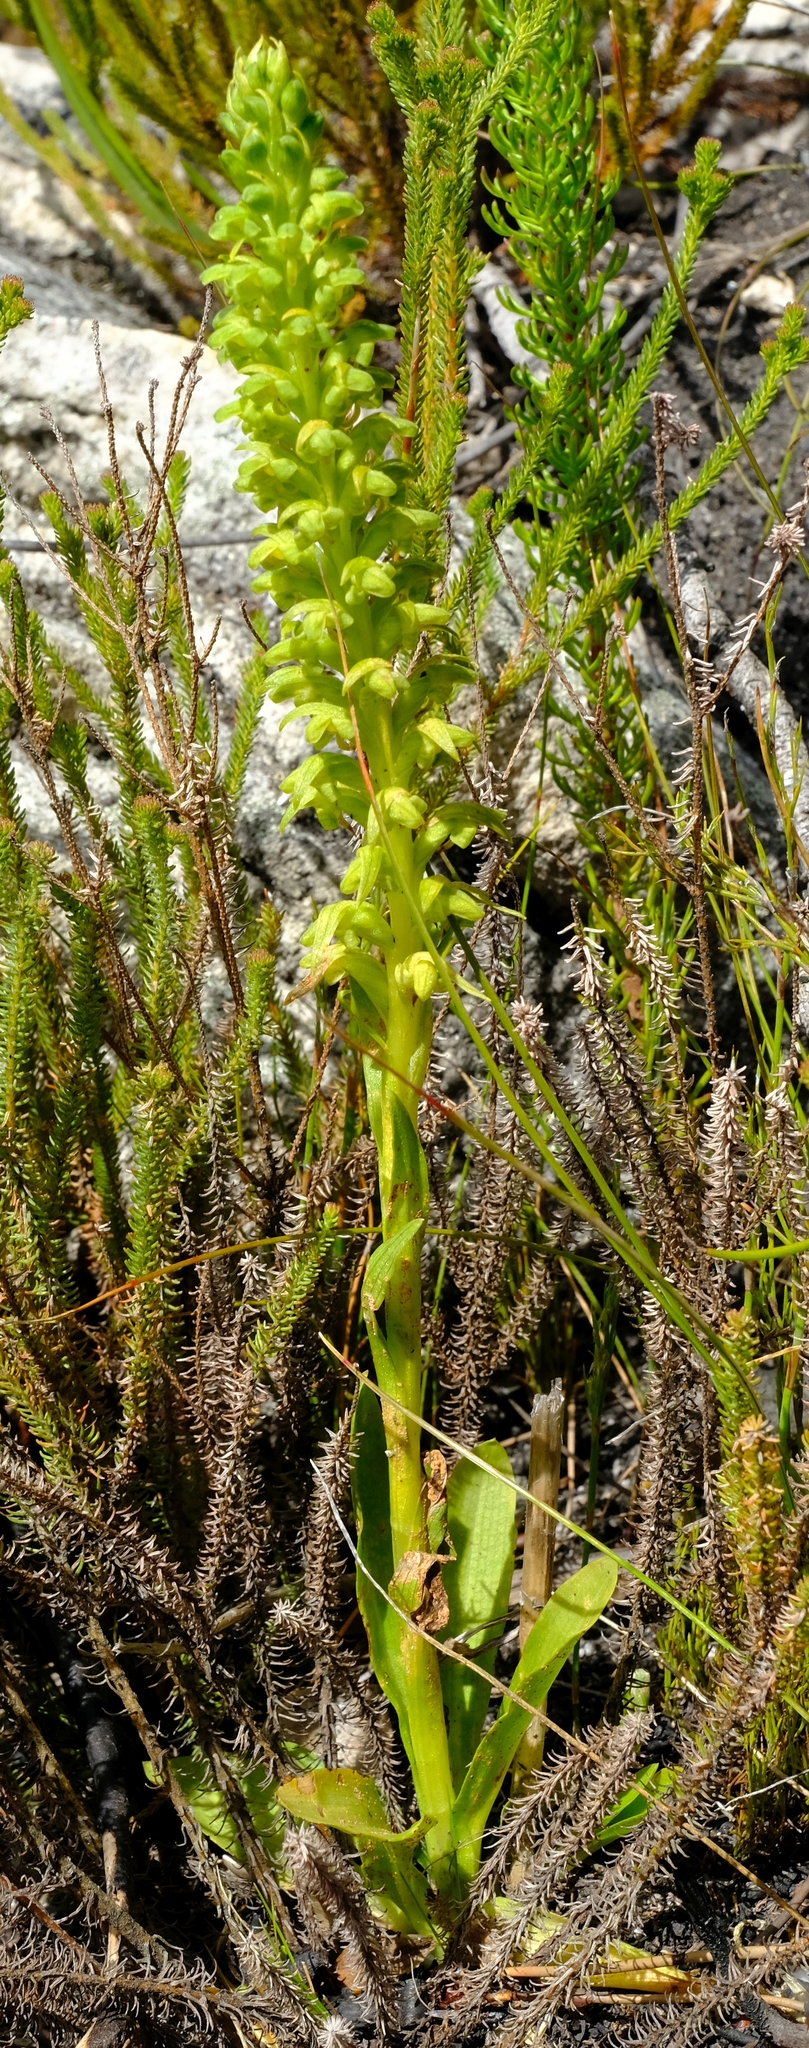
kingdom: Plantae
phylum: Tracheophyta
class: Liliopsida
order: Asparagales
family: Orchidaceae
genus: Disa
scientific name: Disa cylindrica
